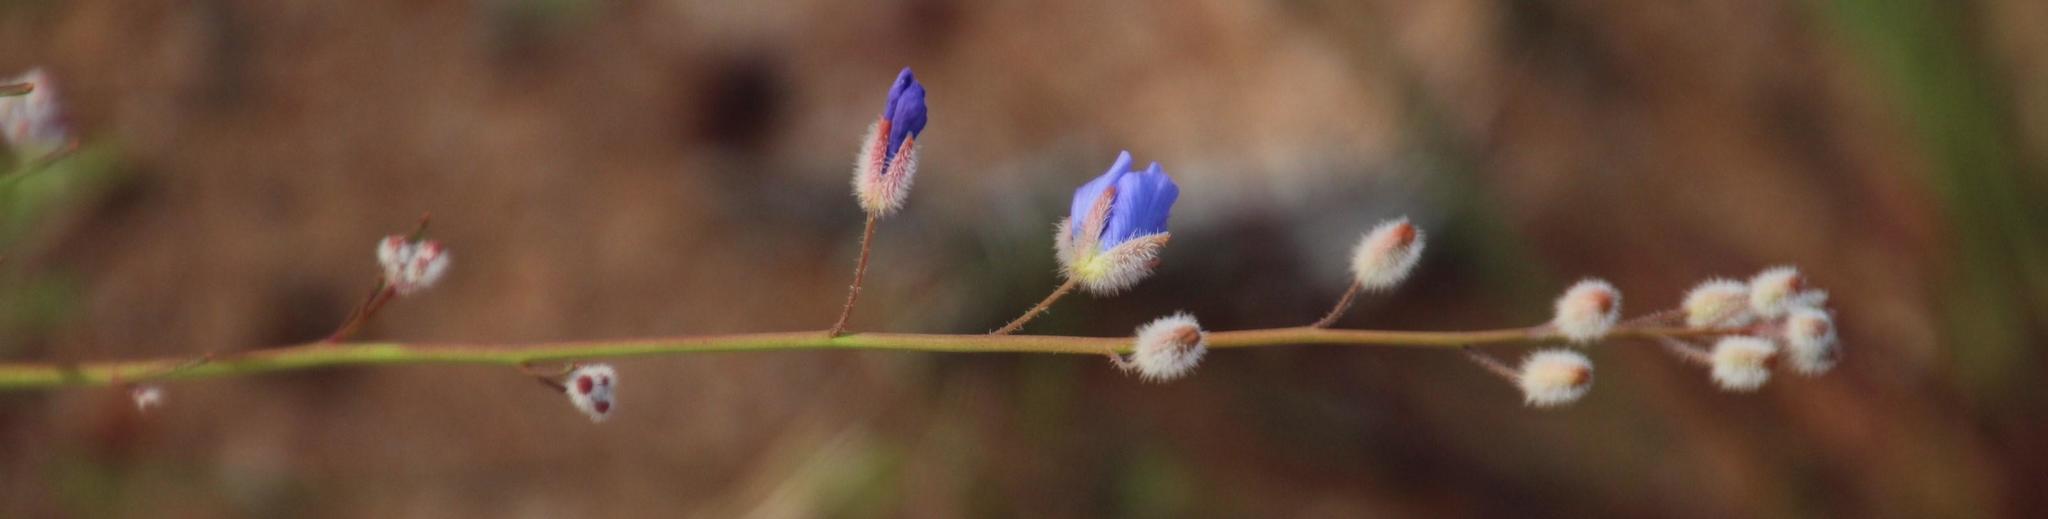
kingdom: Plantae
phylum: Tracheophyta
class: Magnoliopsida
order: Brassicales
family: Brassicaceae
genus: Heliophila
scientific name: Heliophila arenaria
